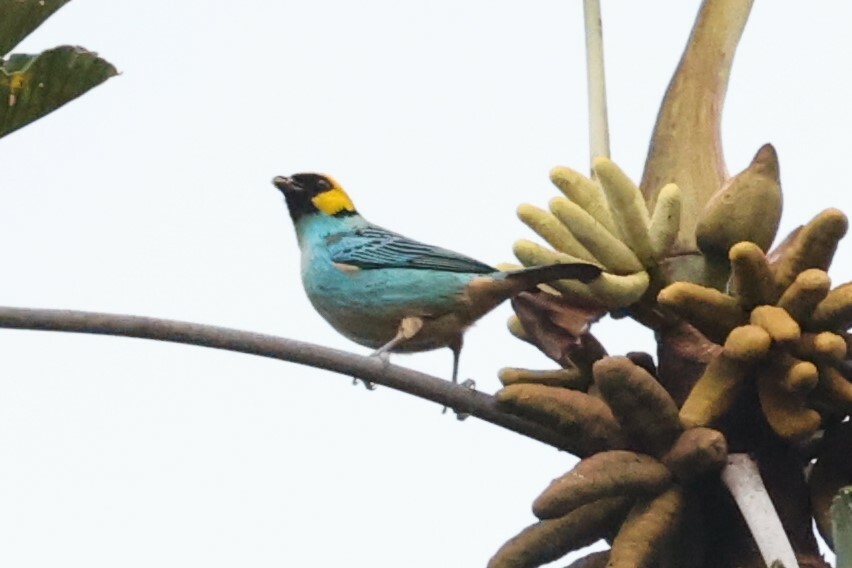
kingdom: Animalia
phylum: Chordata
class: Aves
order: Passeriformes
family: Thraupidae
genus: Tangara
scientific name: Tangara xanthocephala
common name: Saffron-crowned tanager
